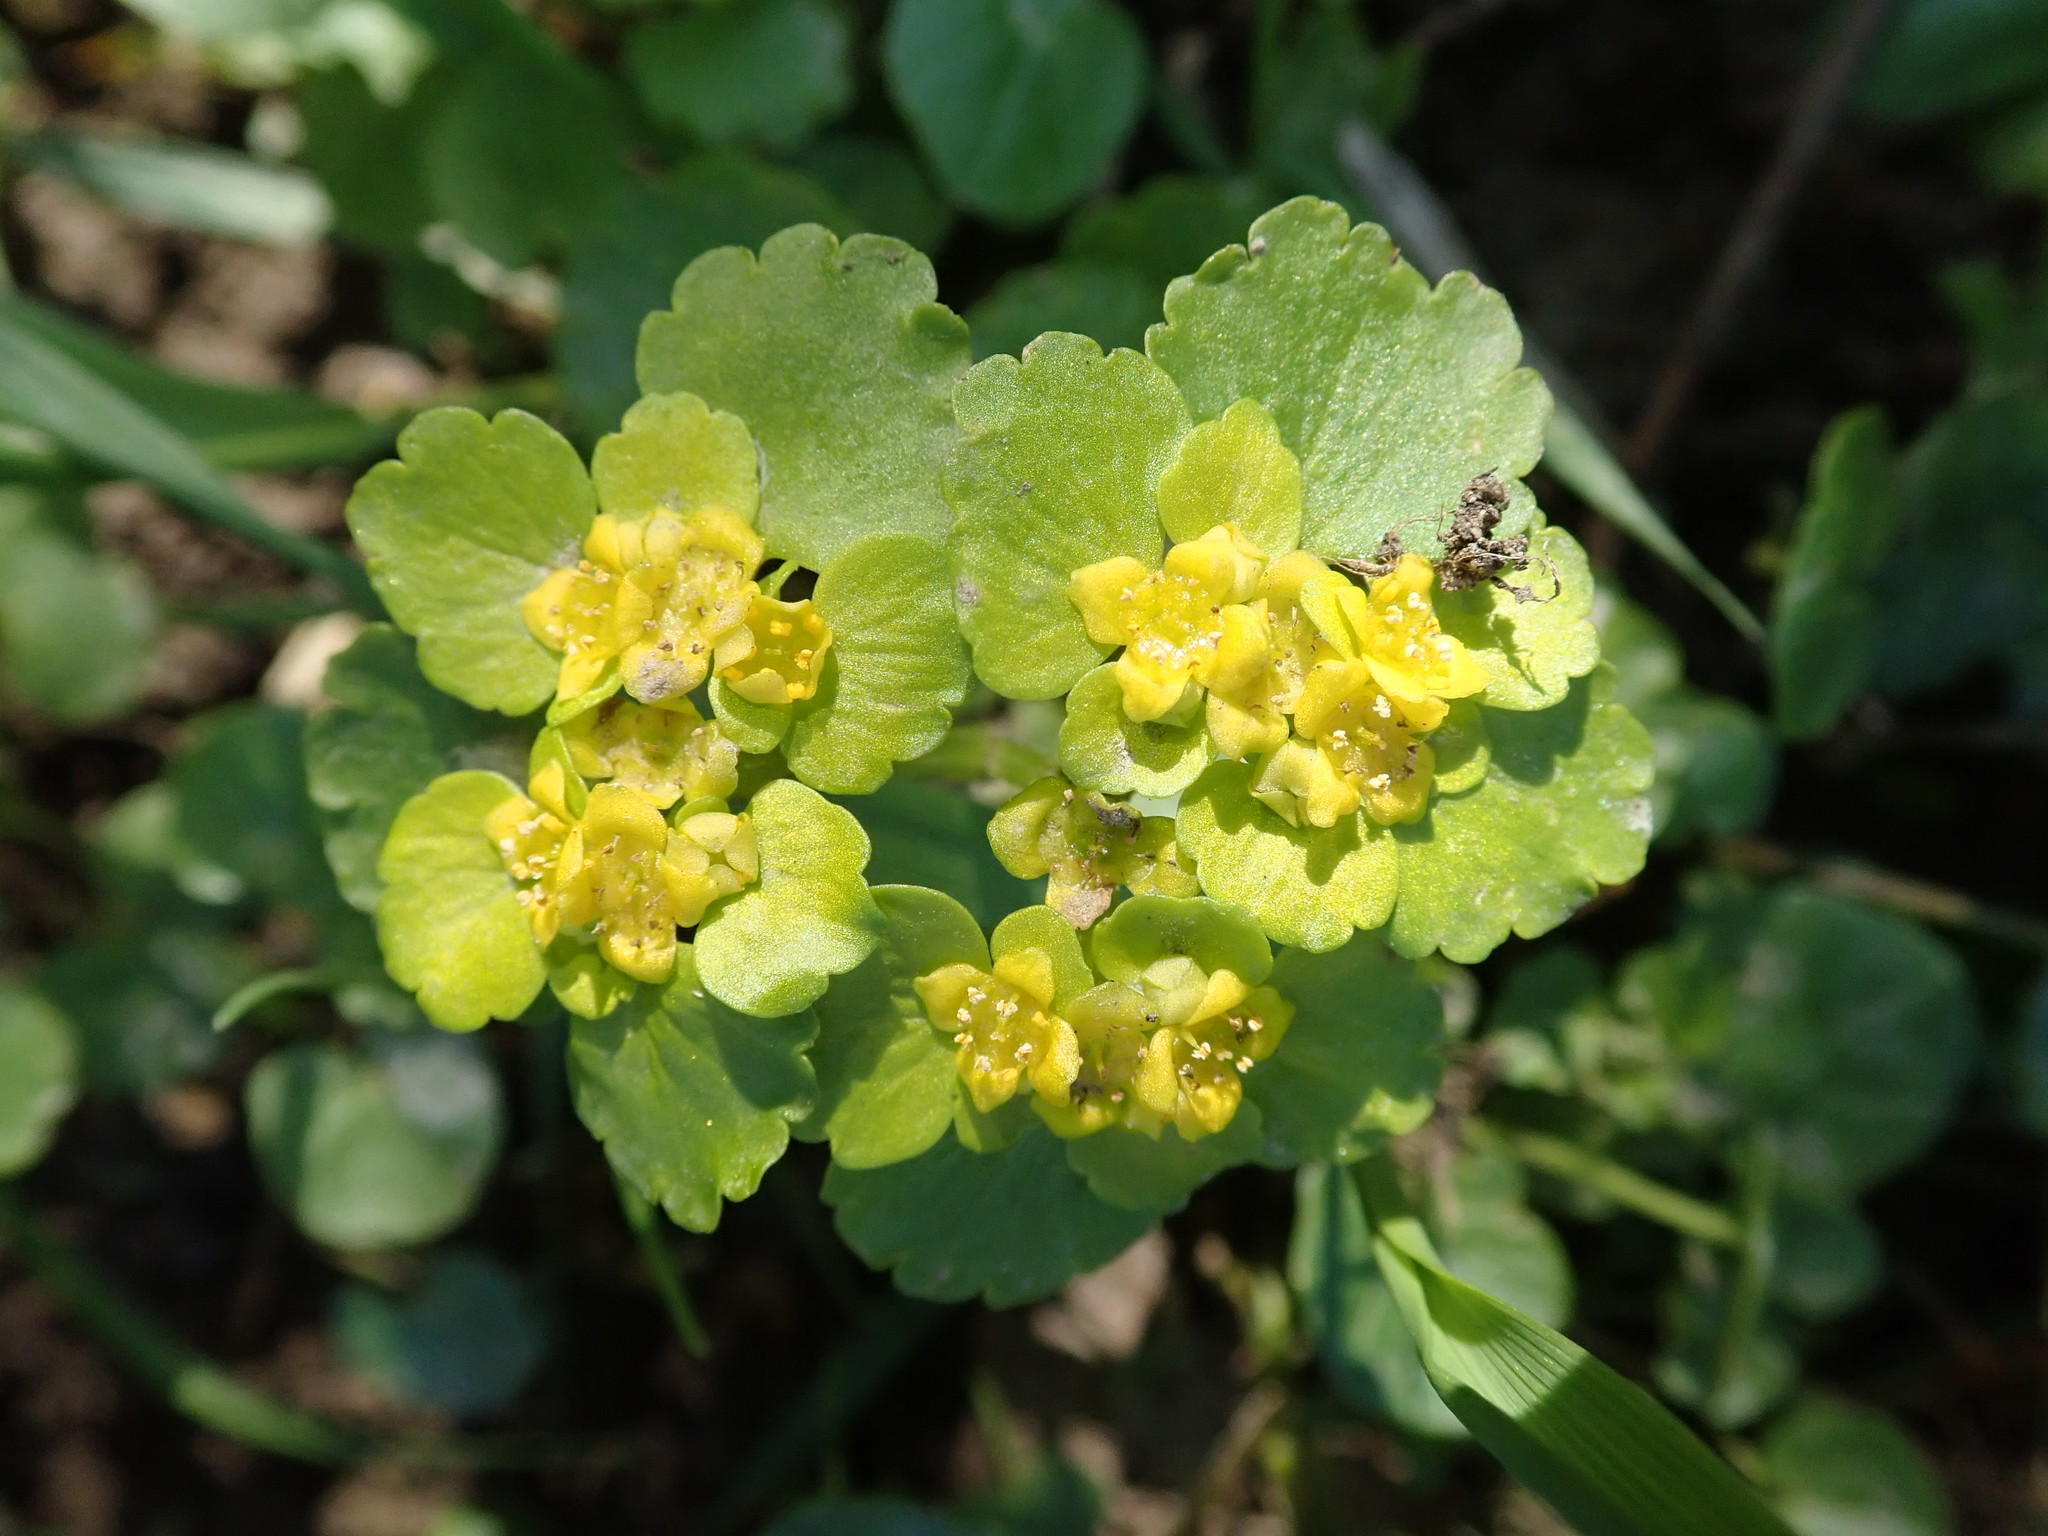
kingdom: Plantae
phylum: Tracheophyta
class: Magnoliopsida
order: Saxifragales
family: Saxifragaceae
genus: Chrysosplenium
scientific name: Chrysosplenium alternifolium
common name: Alternate-leaved golden-saxifrage
